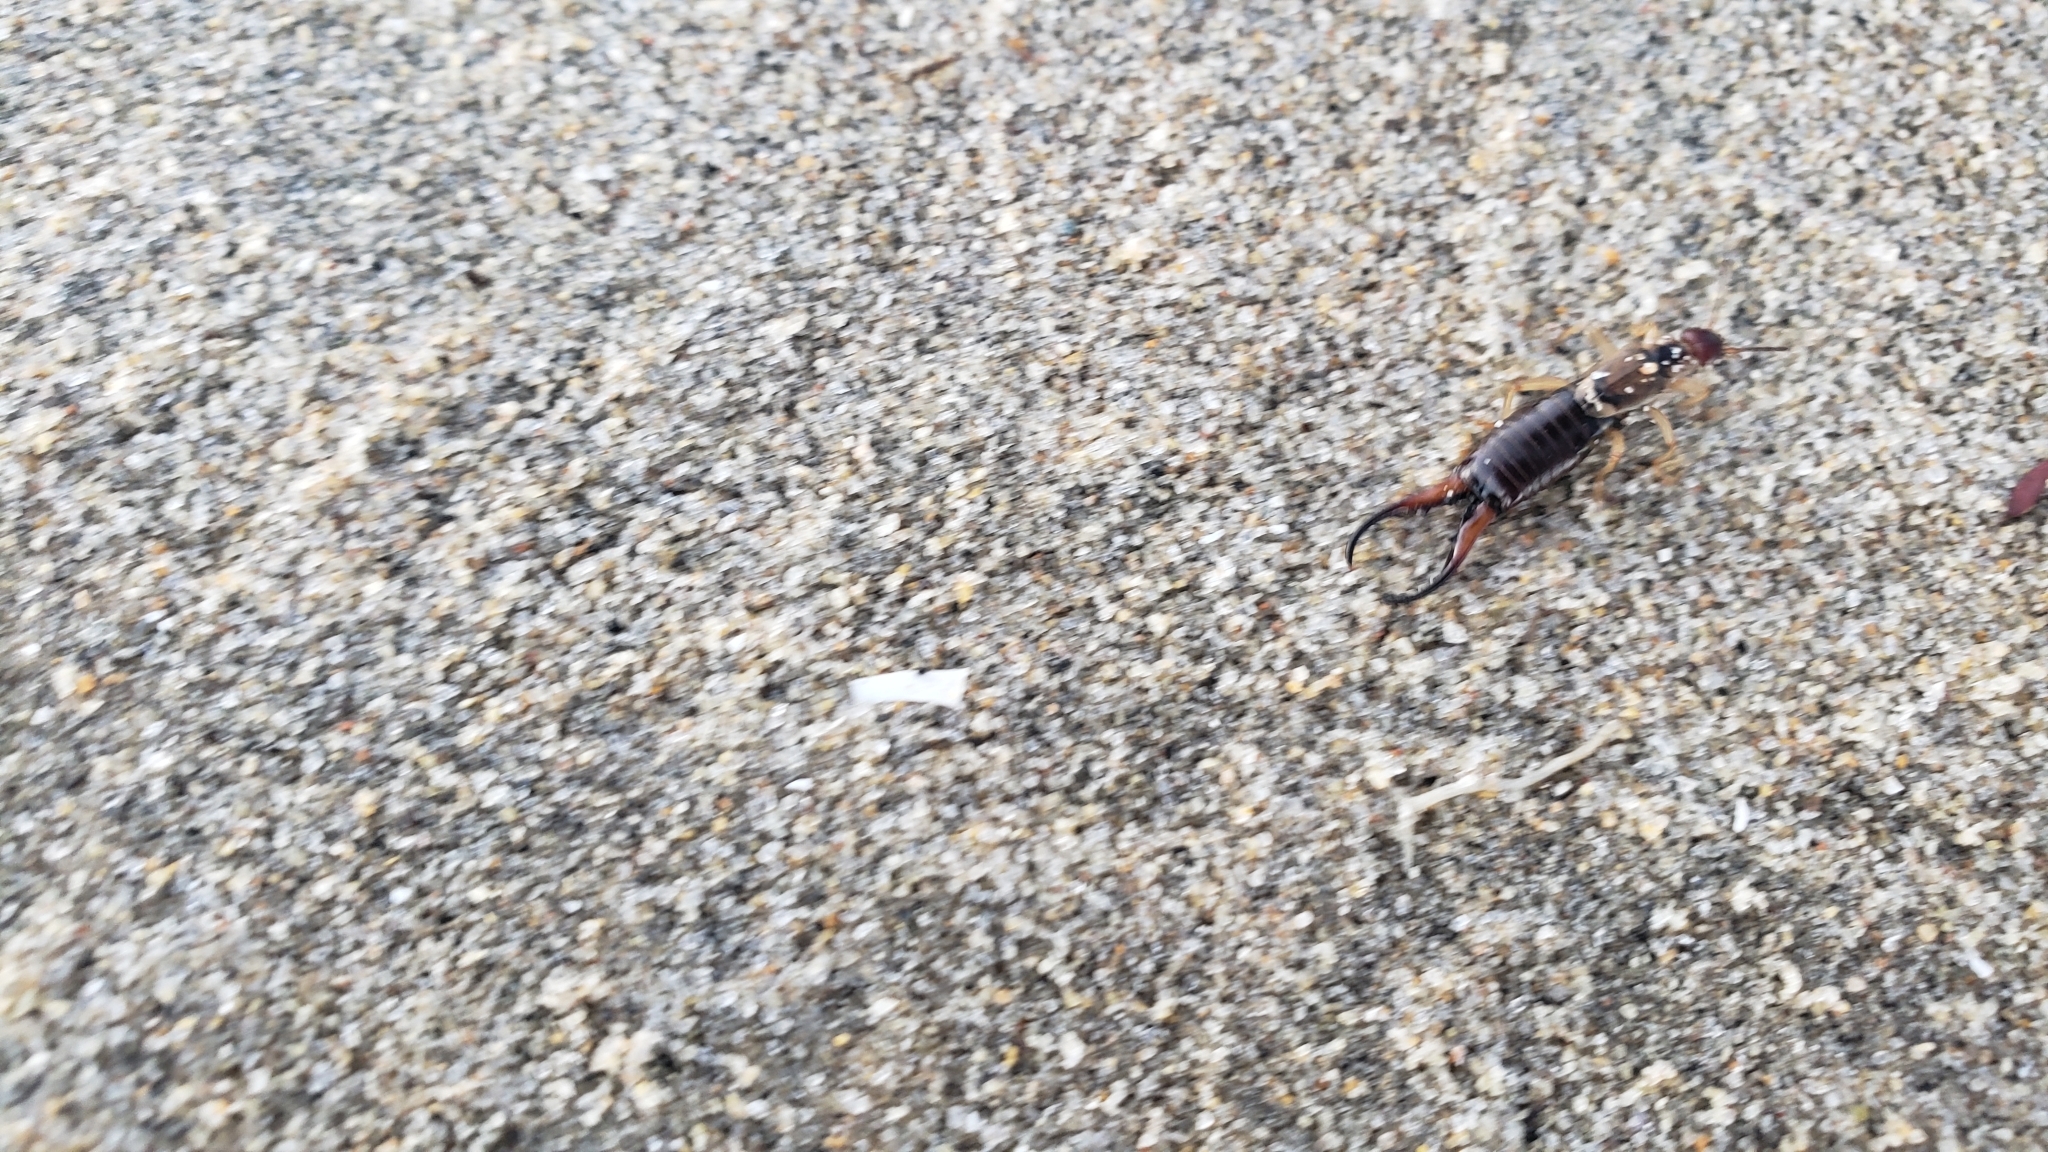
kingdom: Animalia
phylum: Arthropoda
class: Insecta
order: Dermaptera
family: Forficulidae
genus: Forficula
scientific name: Forficula
